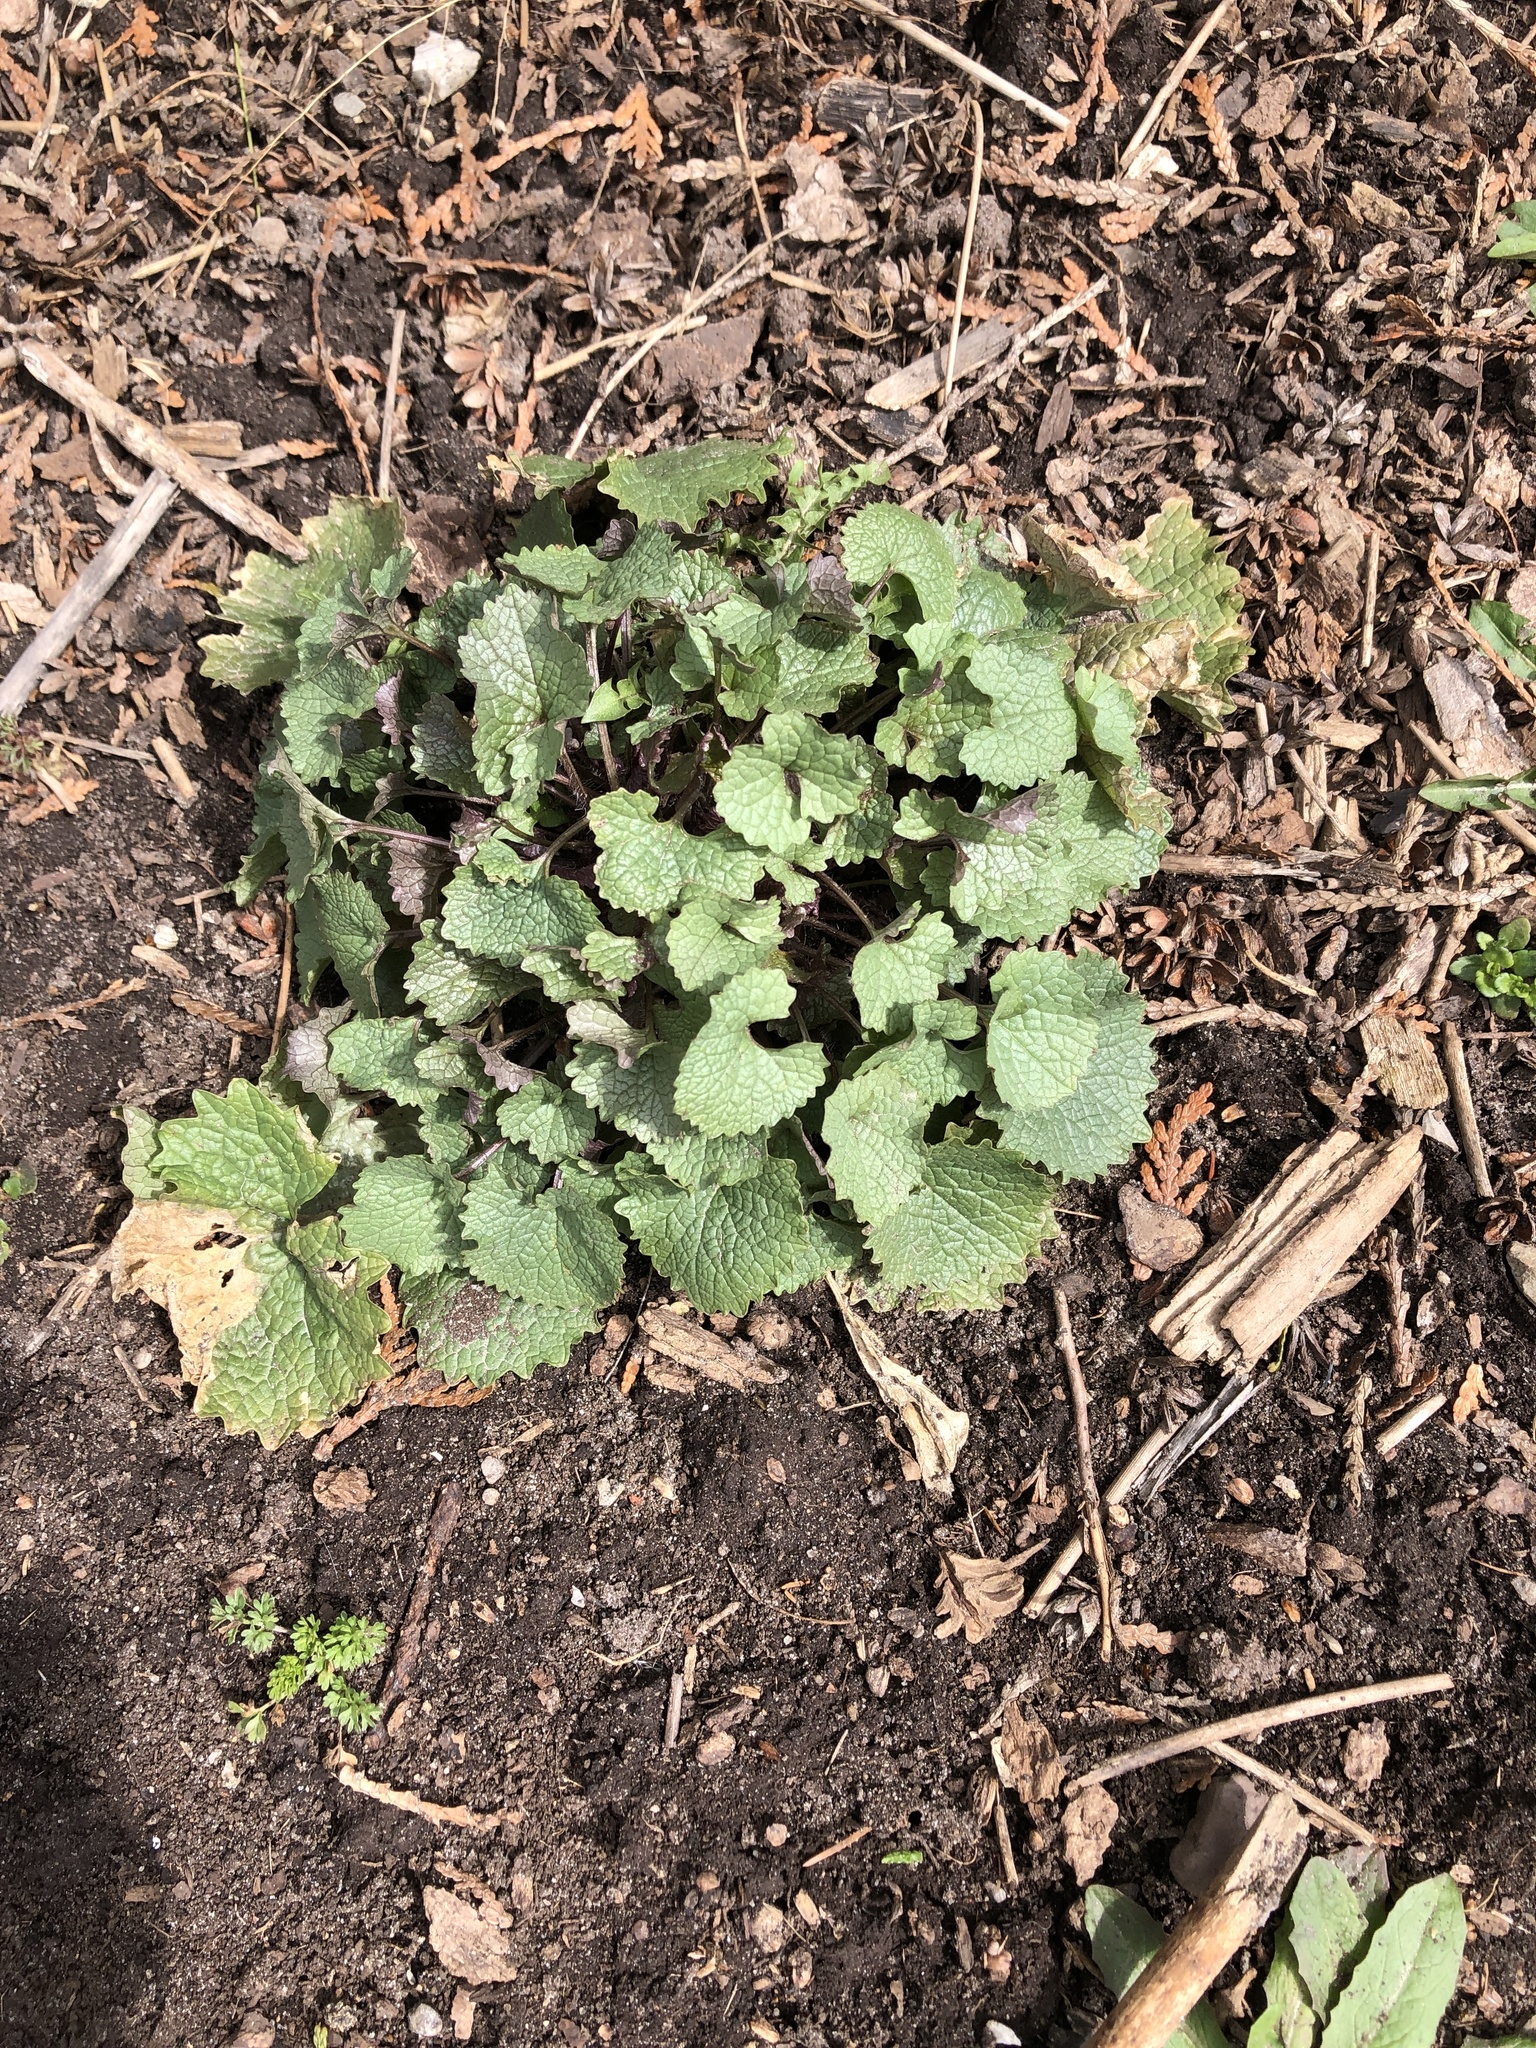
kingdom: Plantae
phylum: Tracheophyta
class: Magnoliopsida
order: Brassicales
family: Brassicaceae
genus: Alliaria
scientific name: Alliaria petiolata
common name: Garlic mustard
